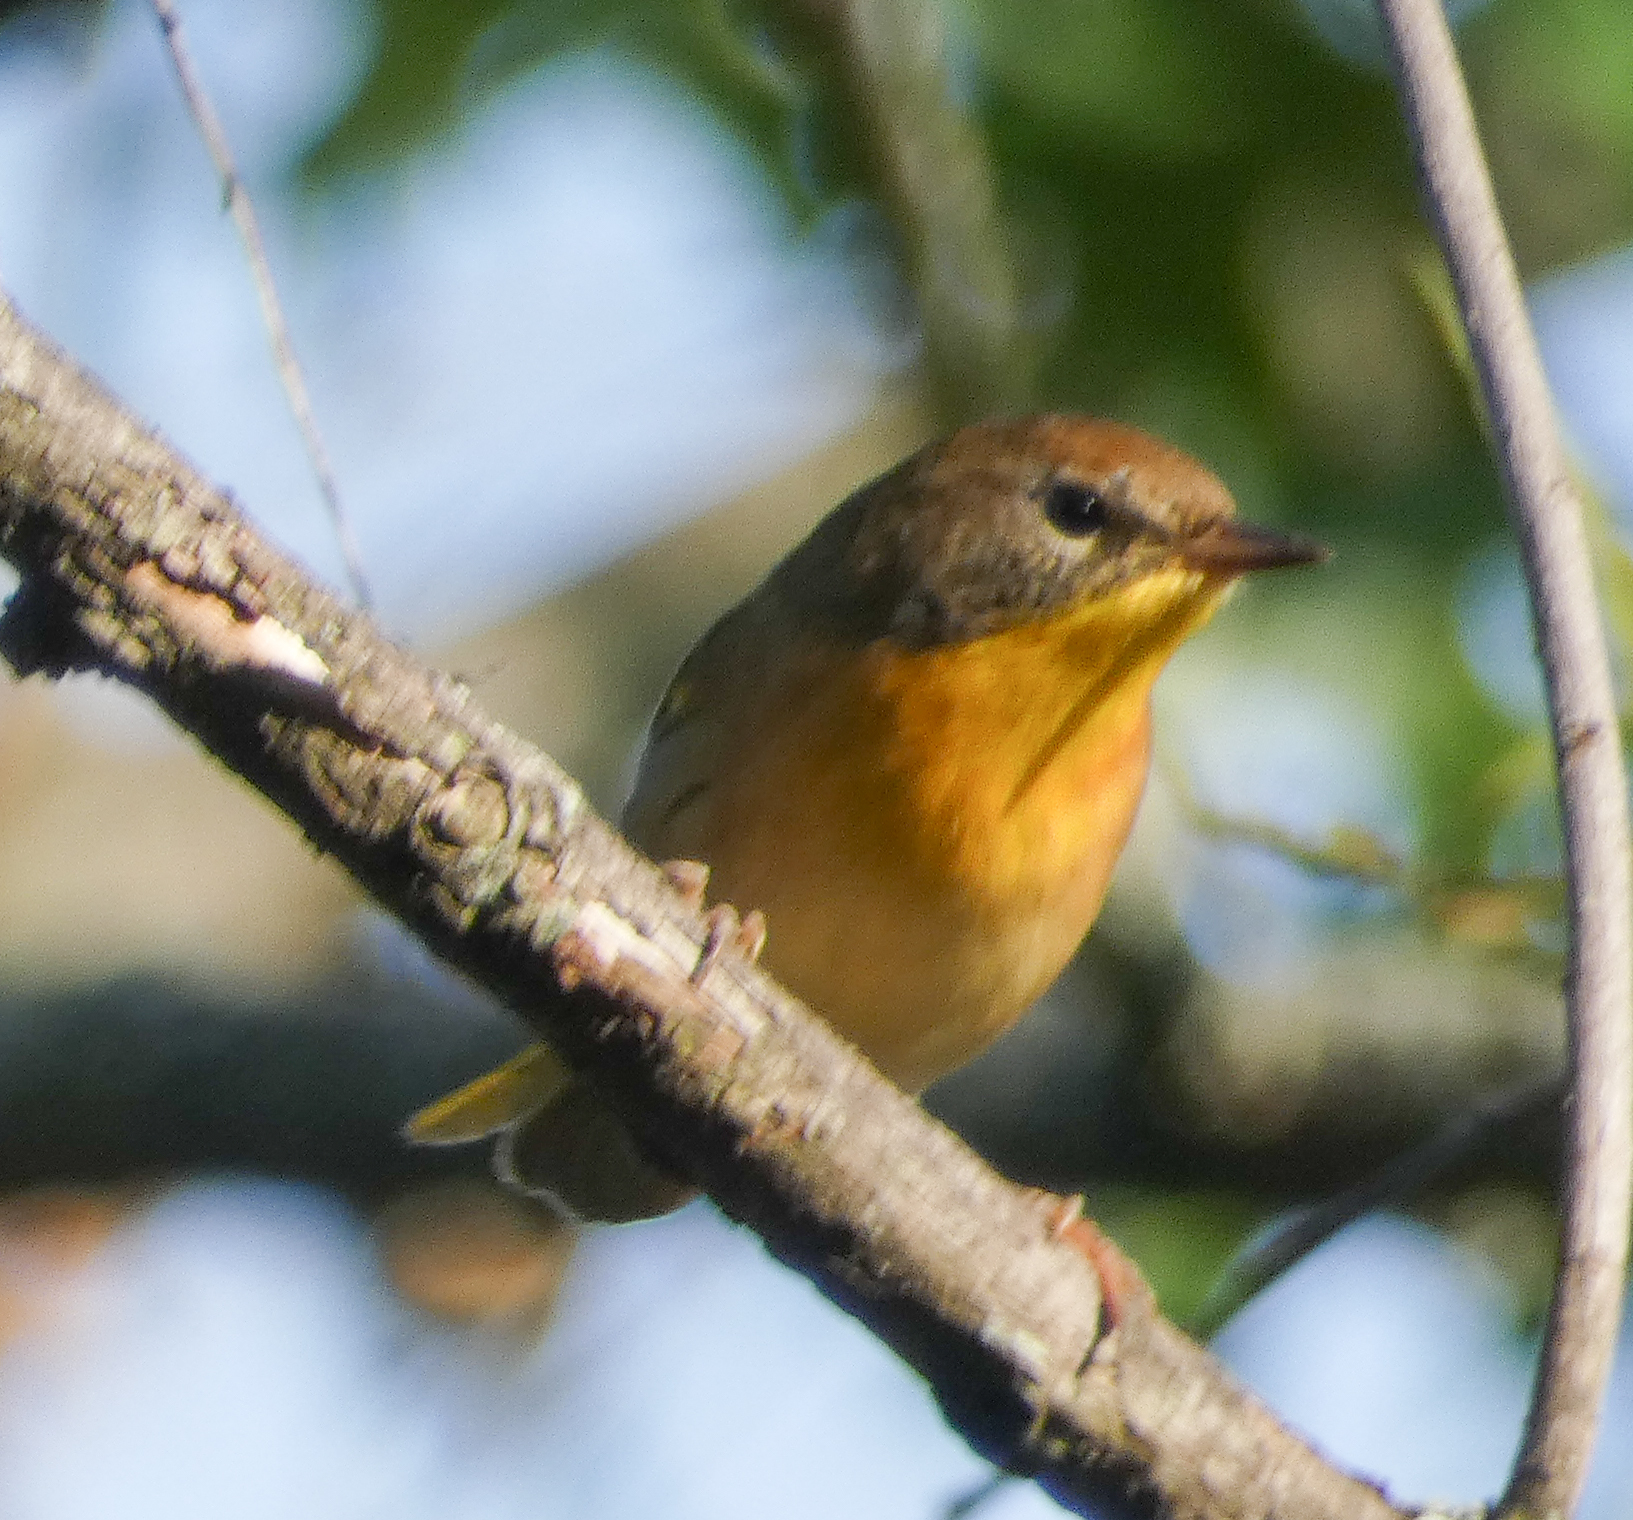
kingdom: Animalia
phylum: Chordata
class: Aves
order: Passeriformes
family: Parulidae
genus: Geothlypis
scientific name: Geothlypis trichas
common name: Common yellowthroat
